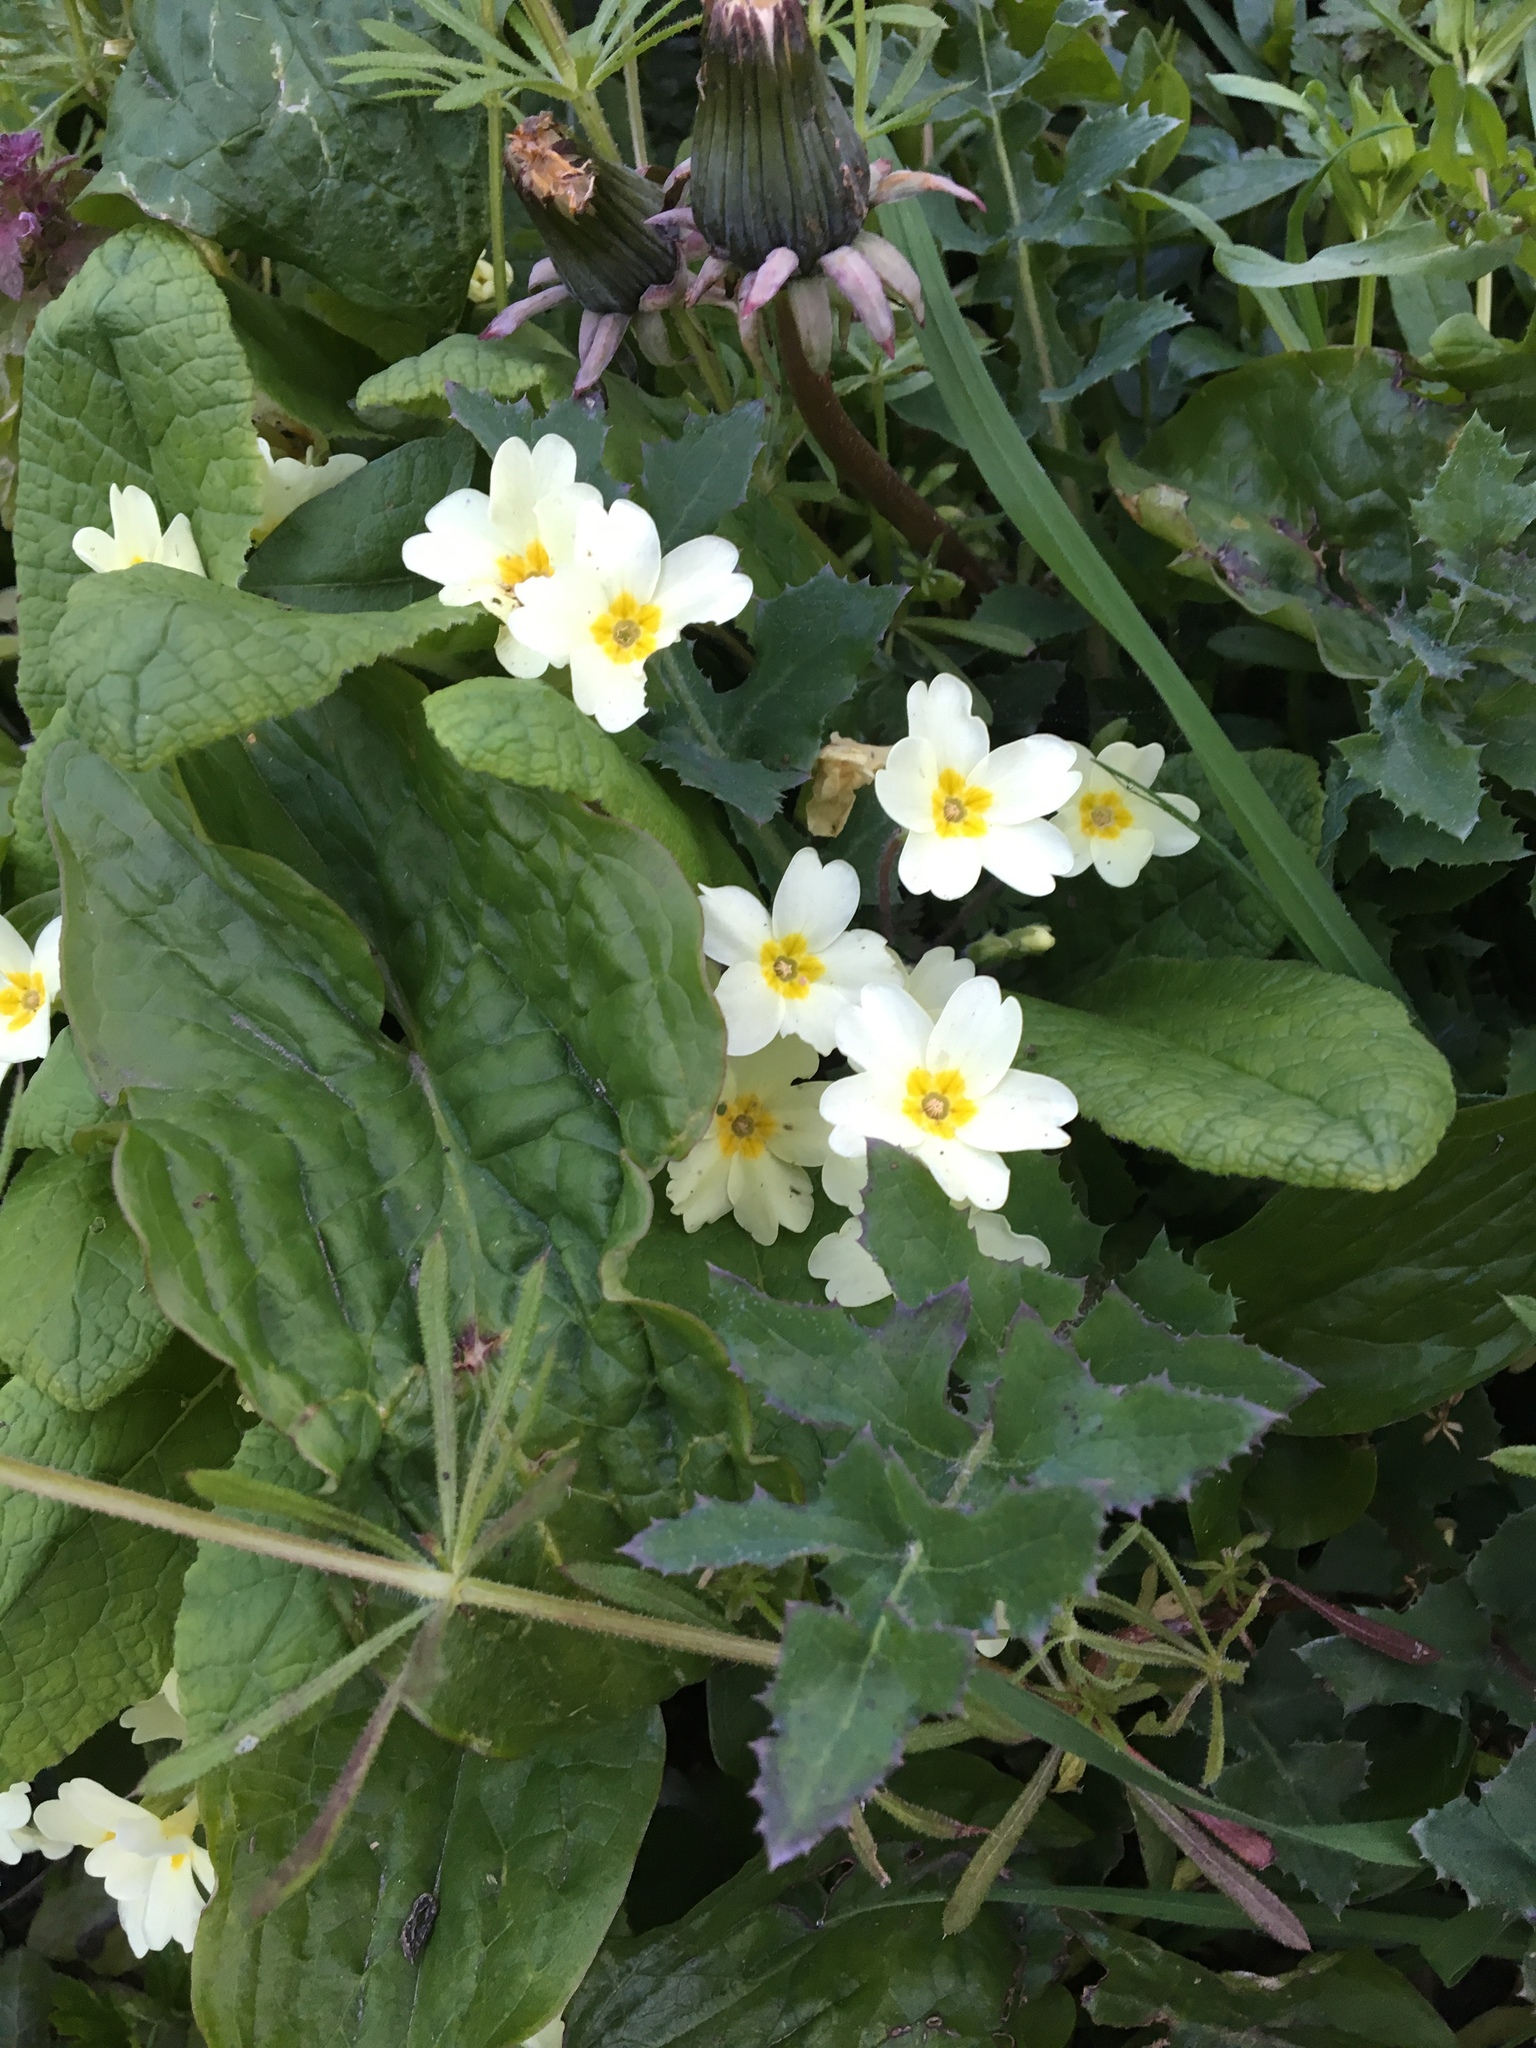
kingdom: Plantae
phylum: Tracheophyta
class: Magnoliopsida
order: Ericales
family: Primulaceae
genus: Primula
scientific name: Primula vulgaris
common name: Primrose
